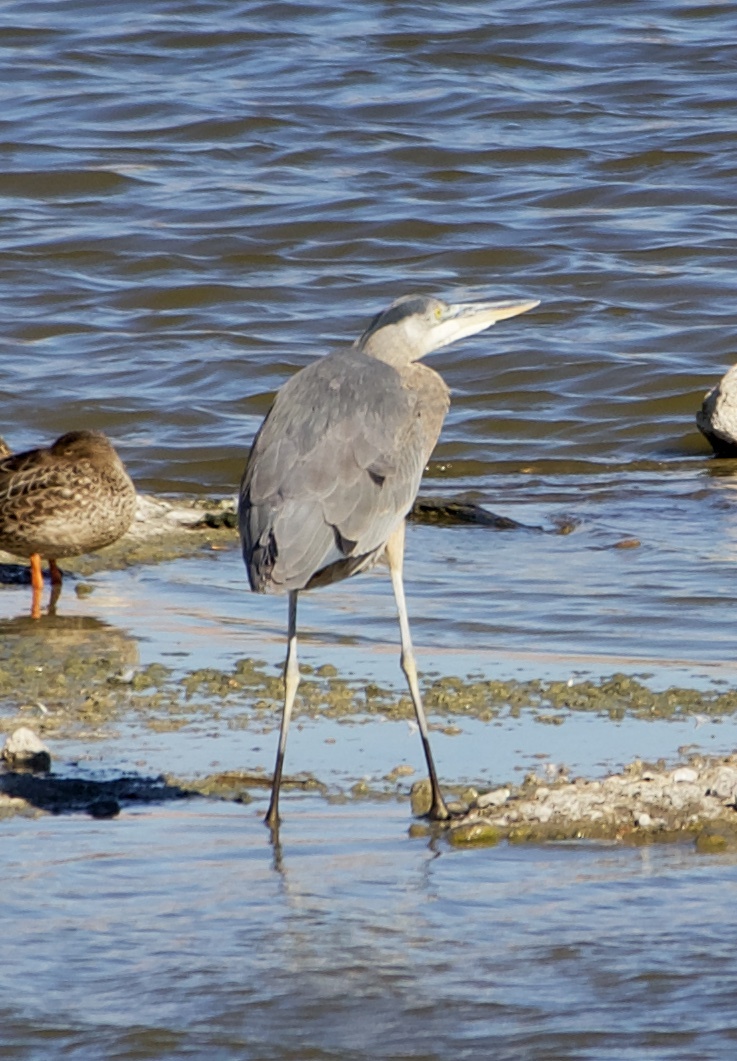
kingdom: Animalia
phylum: Chordata
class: Aves
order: Pelecaniformes
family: Ardeidae
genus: Ardea
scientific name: Ardea herodias
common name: Great blue heron
